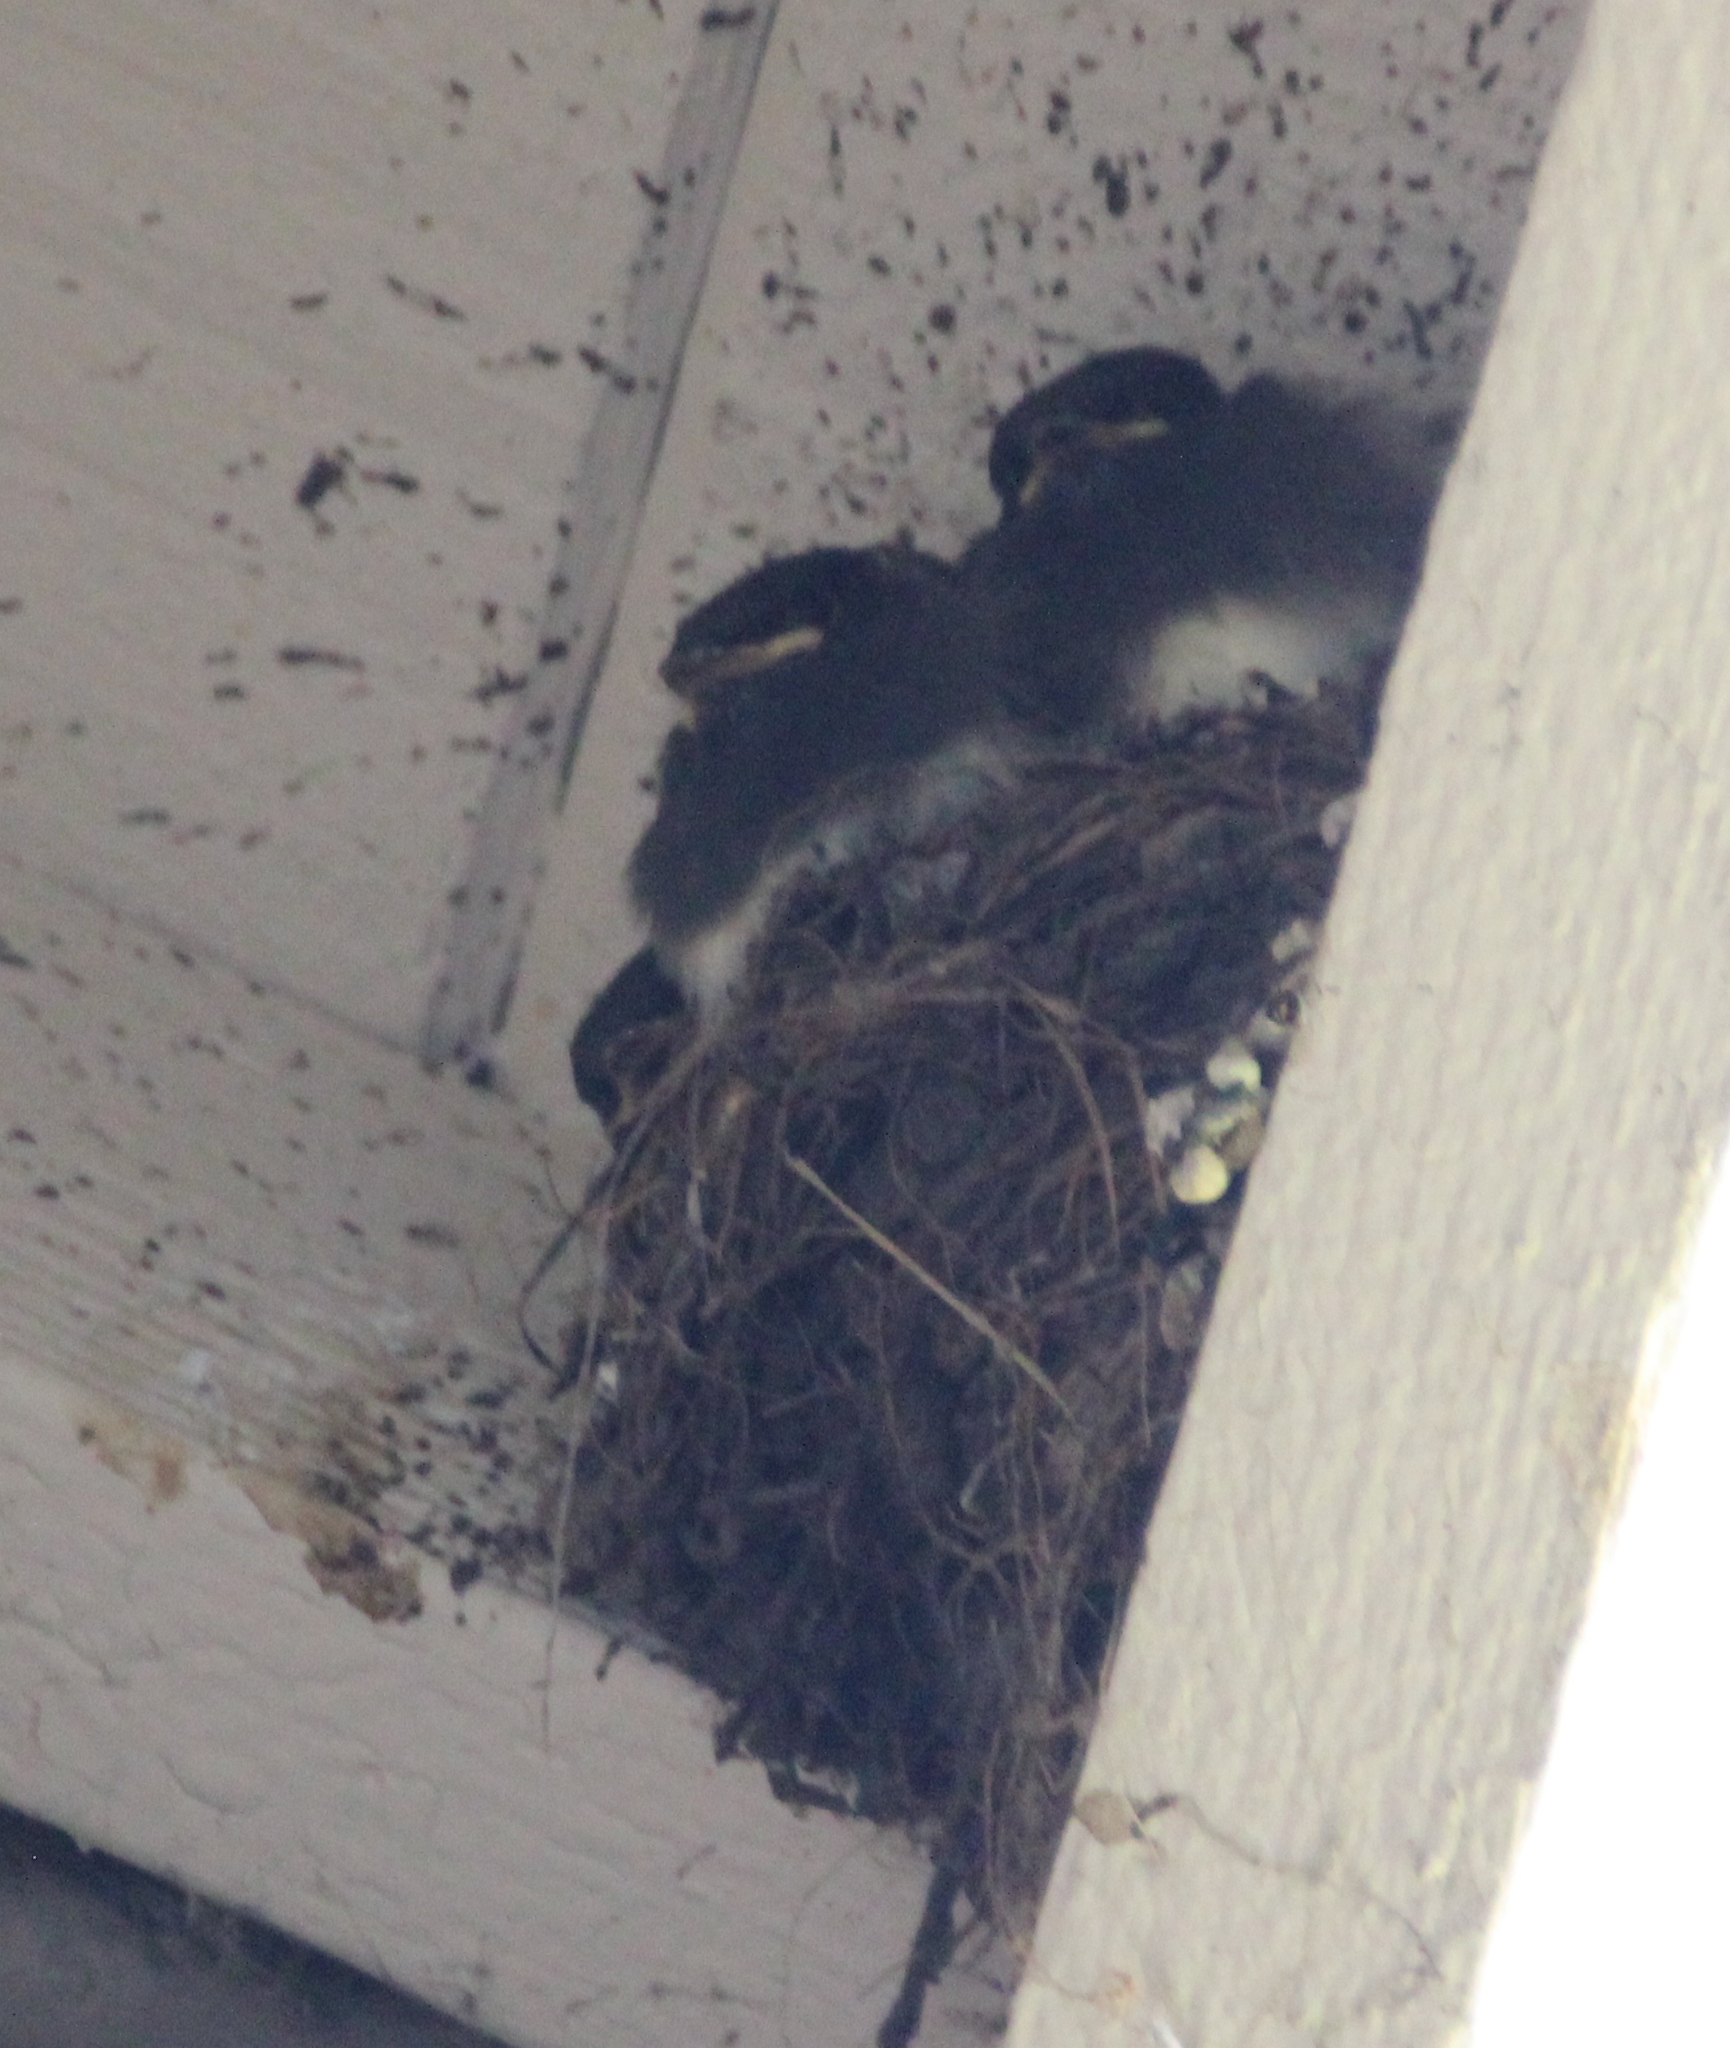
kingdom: Animalia
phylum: Chordata
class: Aves
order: Passeriformes
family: Tyrannidae
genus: Sayornis
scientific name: Sayornis nigricans
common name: Black phoebe
